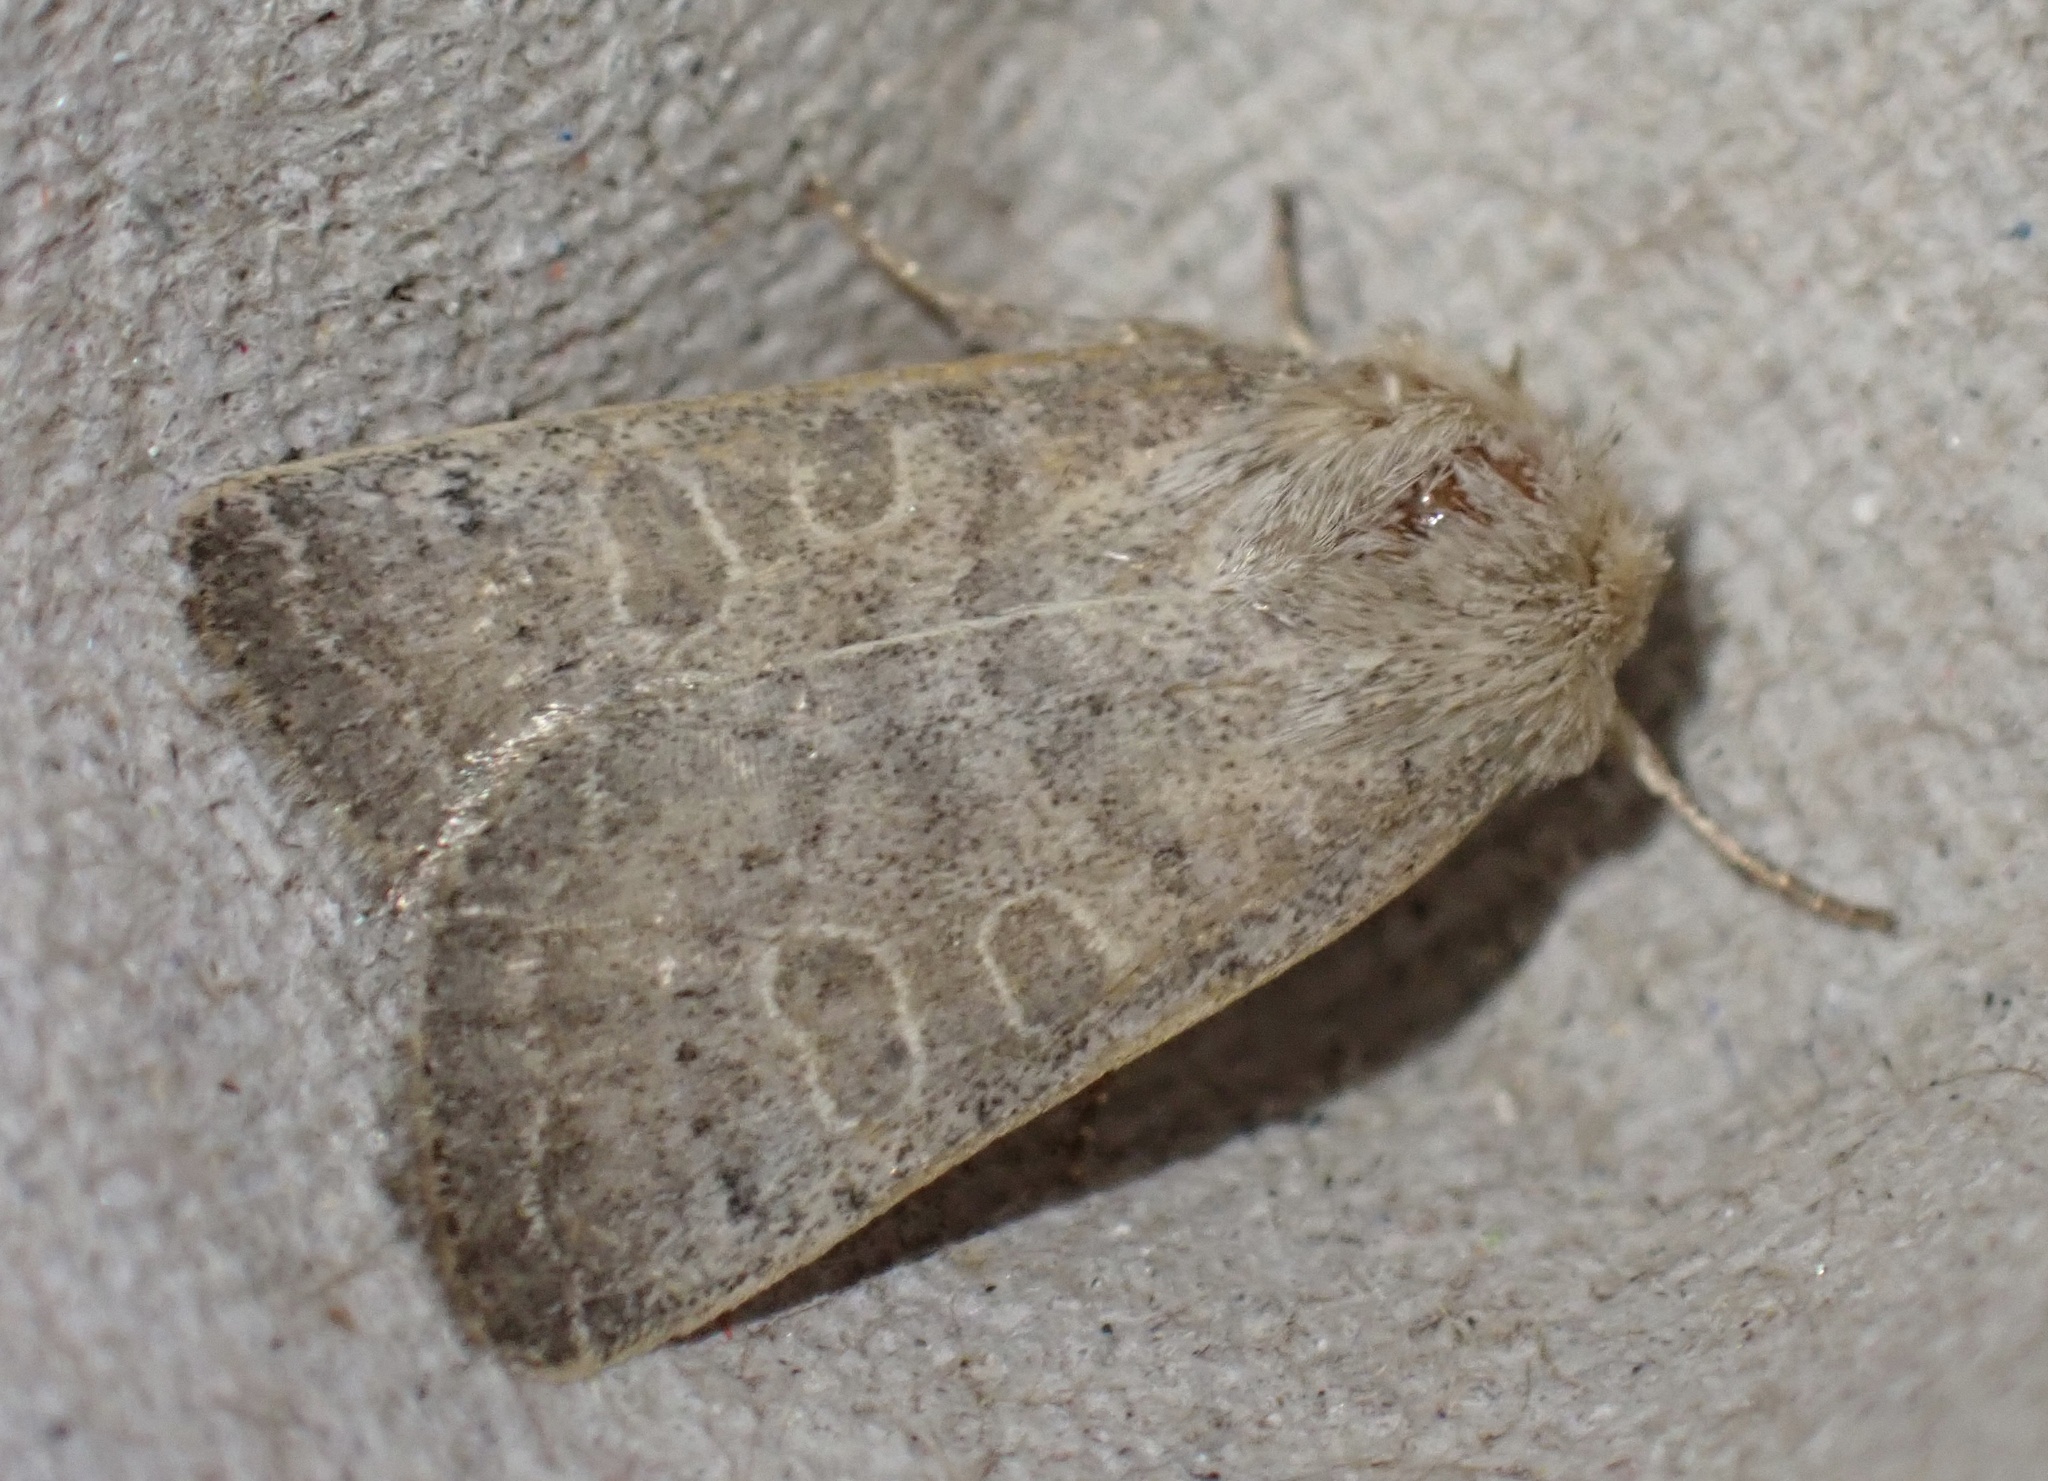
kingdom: Animalia
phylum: Arthropoda
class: Insecta
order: Lepidoptera
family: Noctuidae
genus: Hoplodrina
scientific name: Hoplodrina ambigua
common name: Vine's rustic
